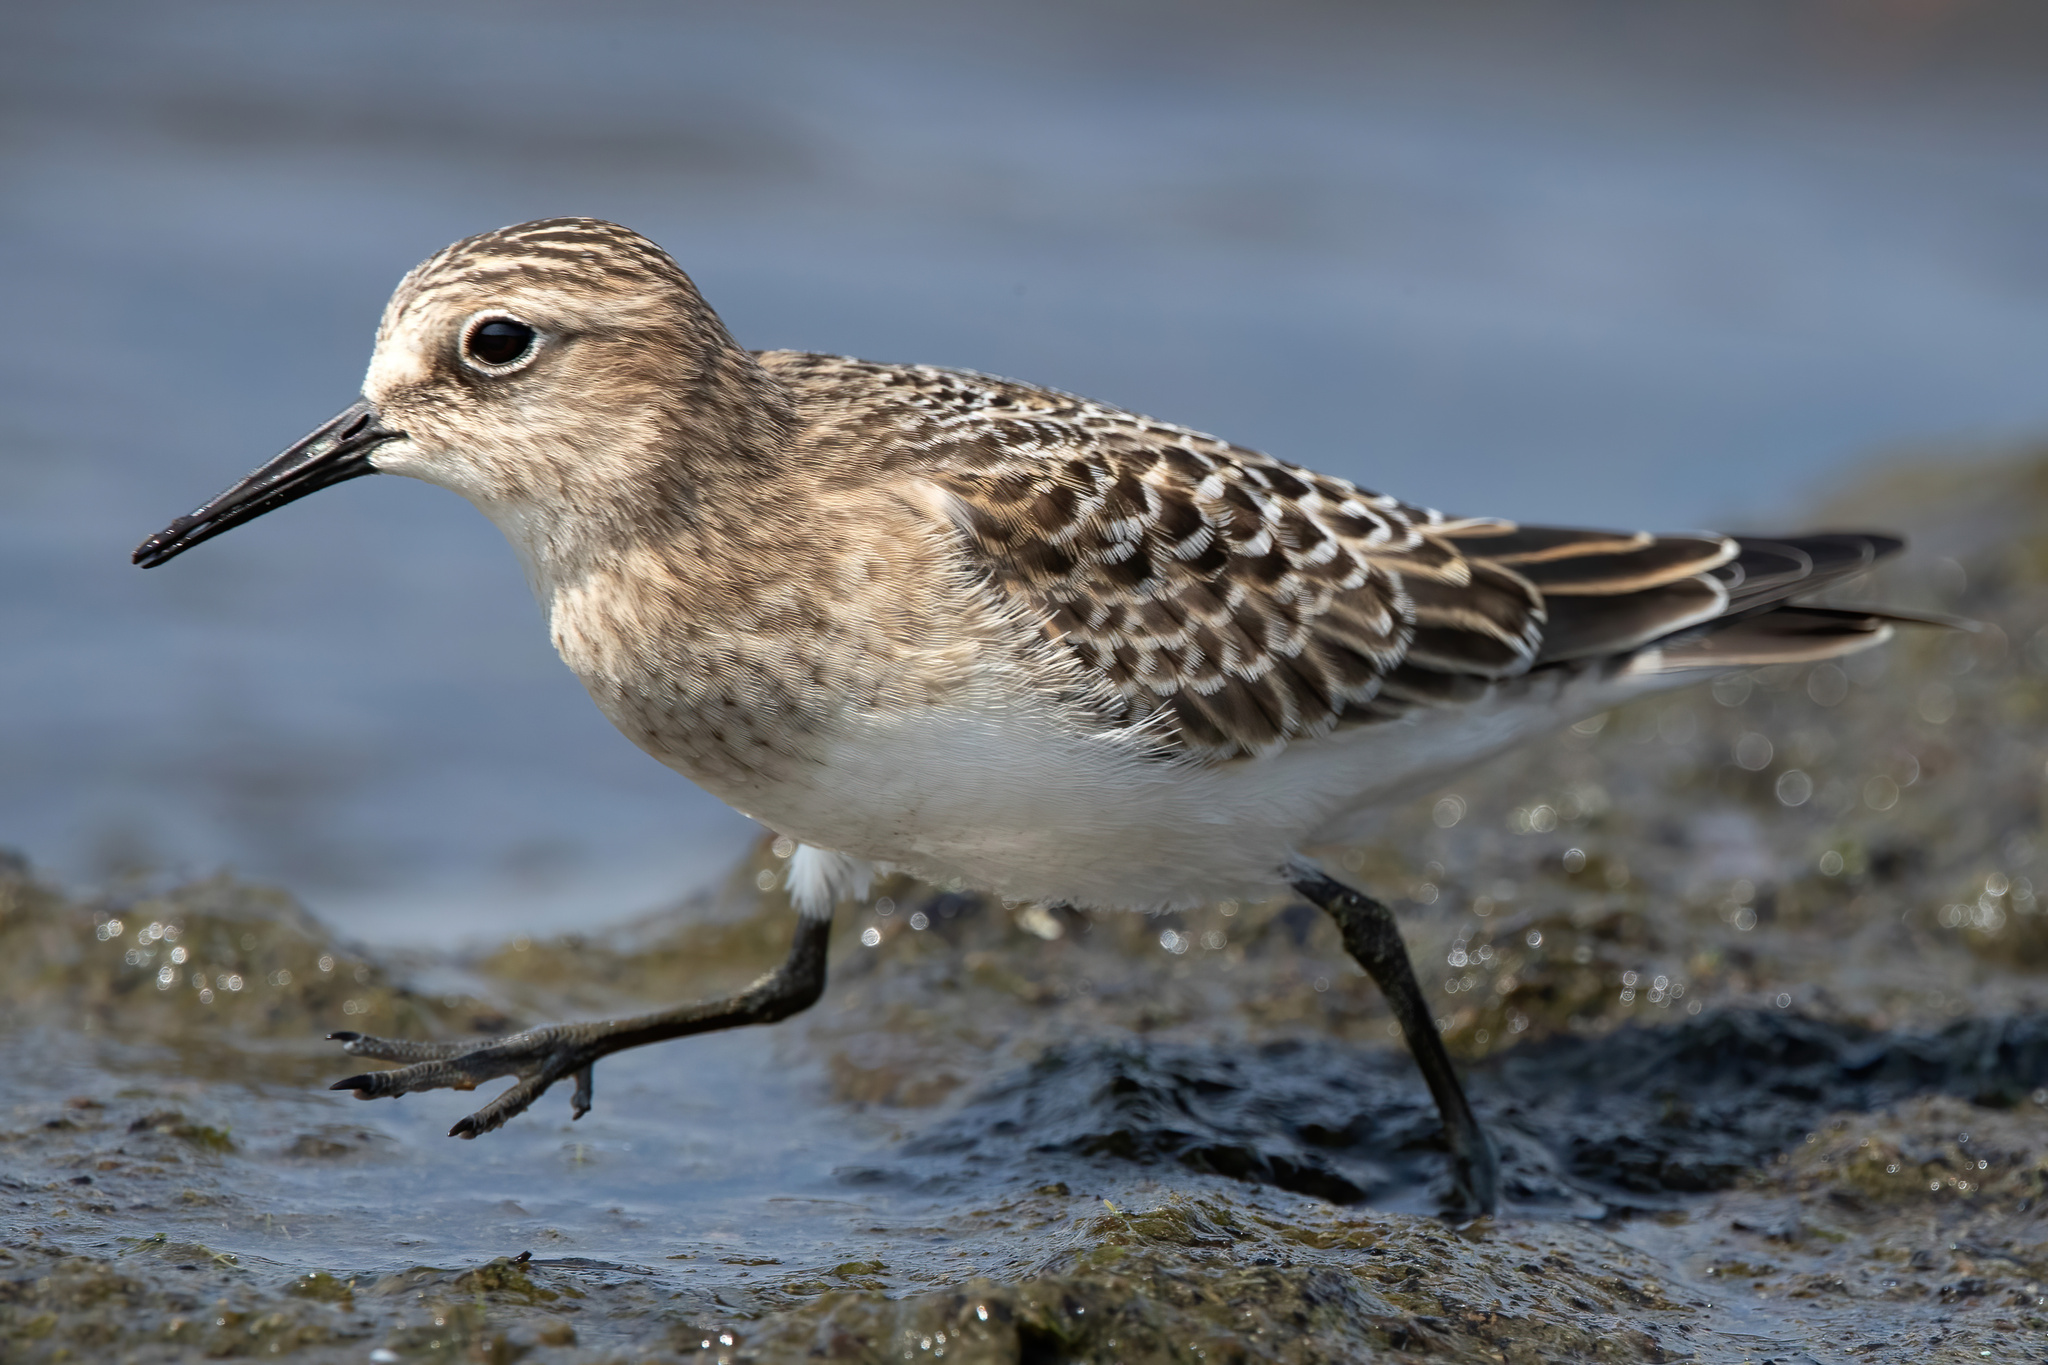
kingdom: Animalia
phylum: Chordata
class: Aves
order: Charadriiformes
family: Scolopacidae
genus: Calidris
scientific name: Calidris bairdii
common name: Baird's sandpiper
